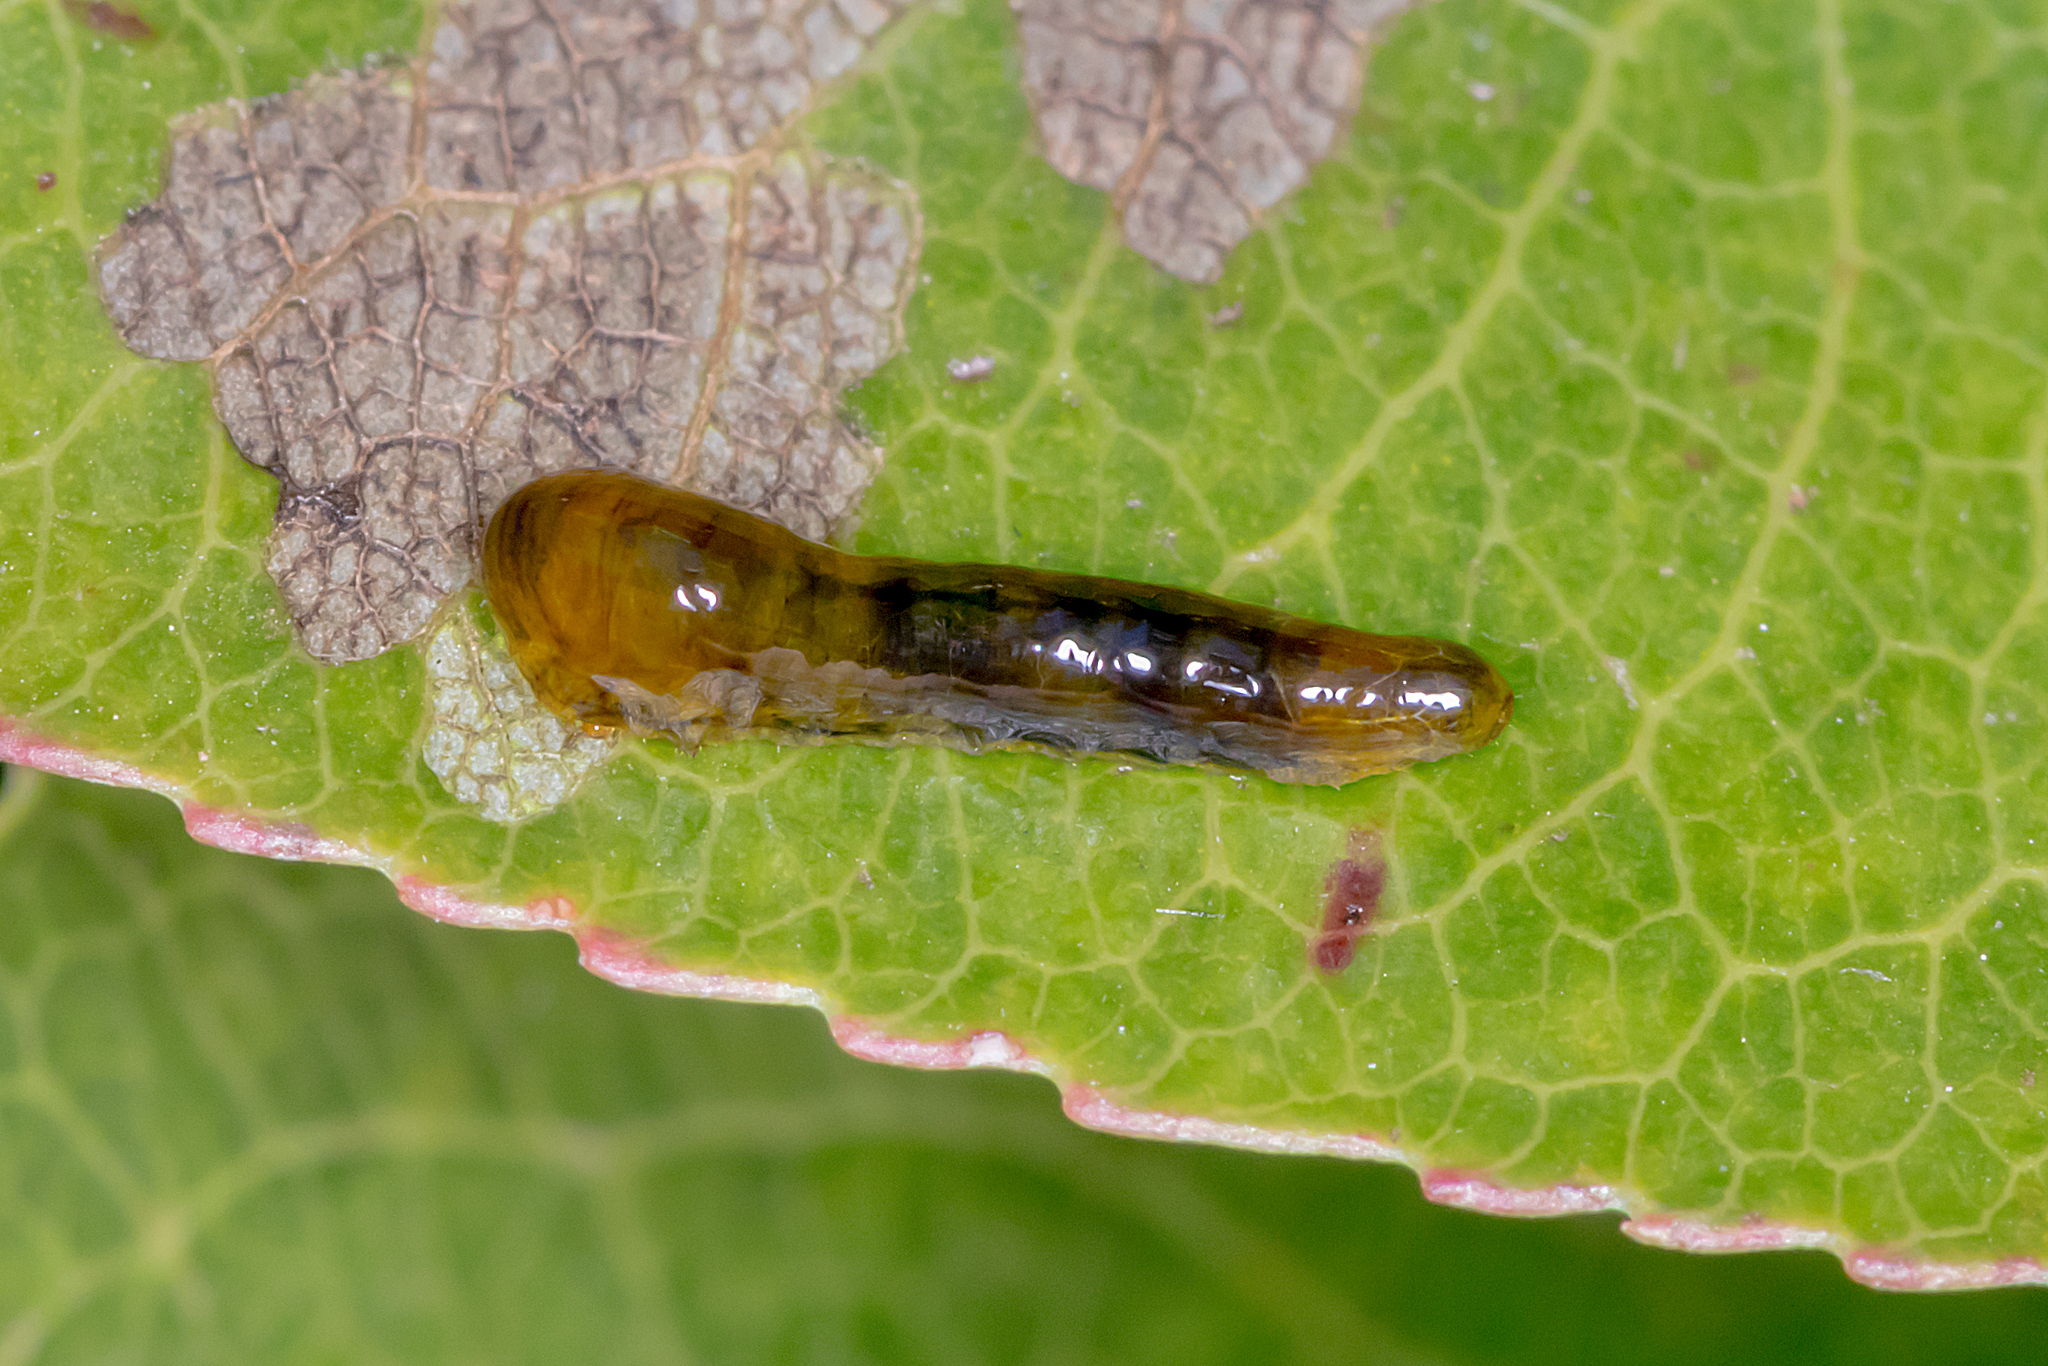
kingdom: Animalia
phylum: Arthropoda
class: Insecta
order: Hymenoptera
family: Tenthredinidae
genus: Caliroa
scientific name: Caliroa cerasi
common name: Pear sawfly
